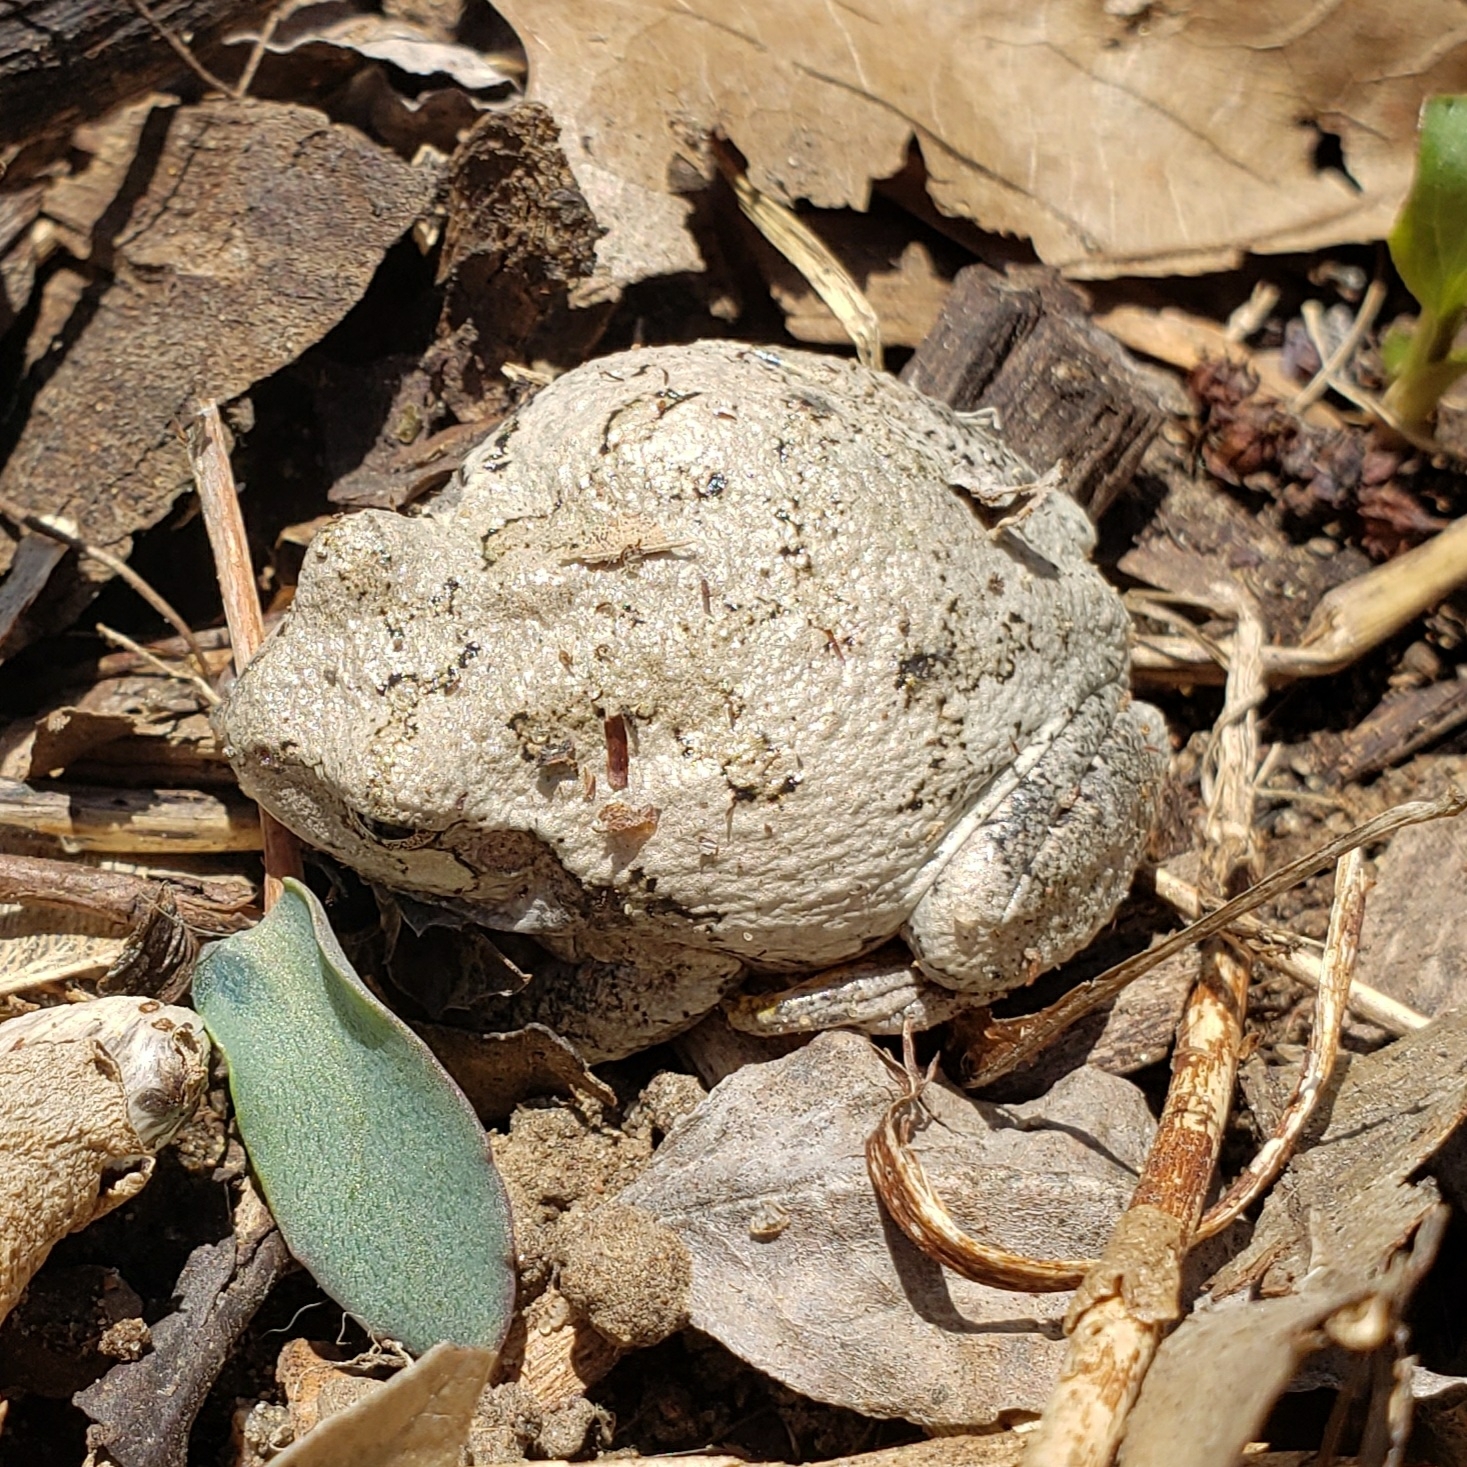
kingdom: Animalia
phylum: Chordata
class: Amphibia
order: Anura
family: Hylidae
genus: Hyla
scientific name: Hyla
